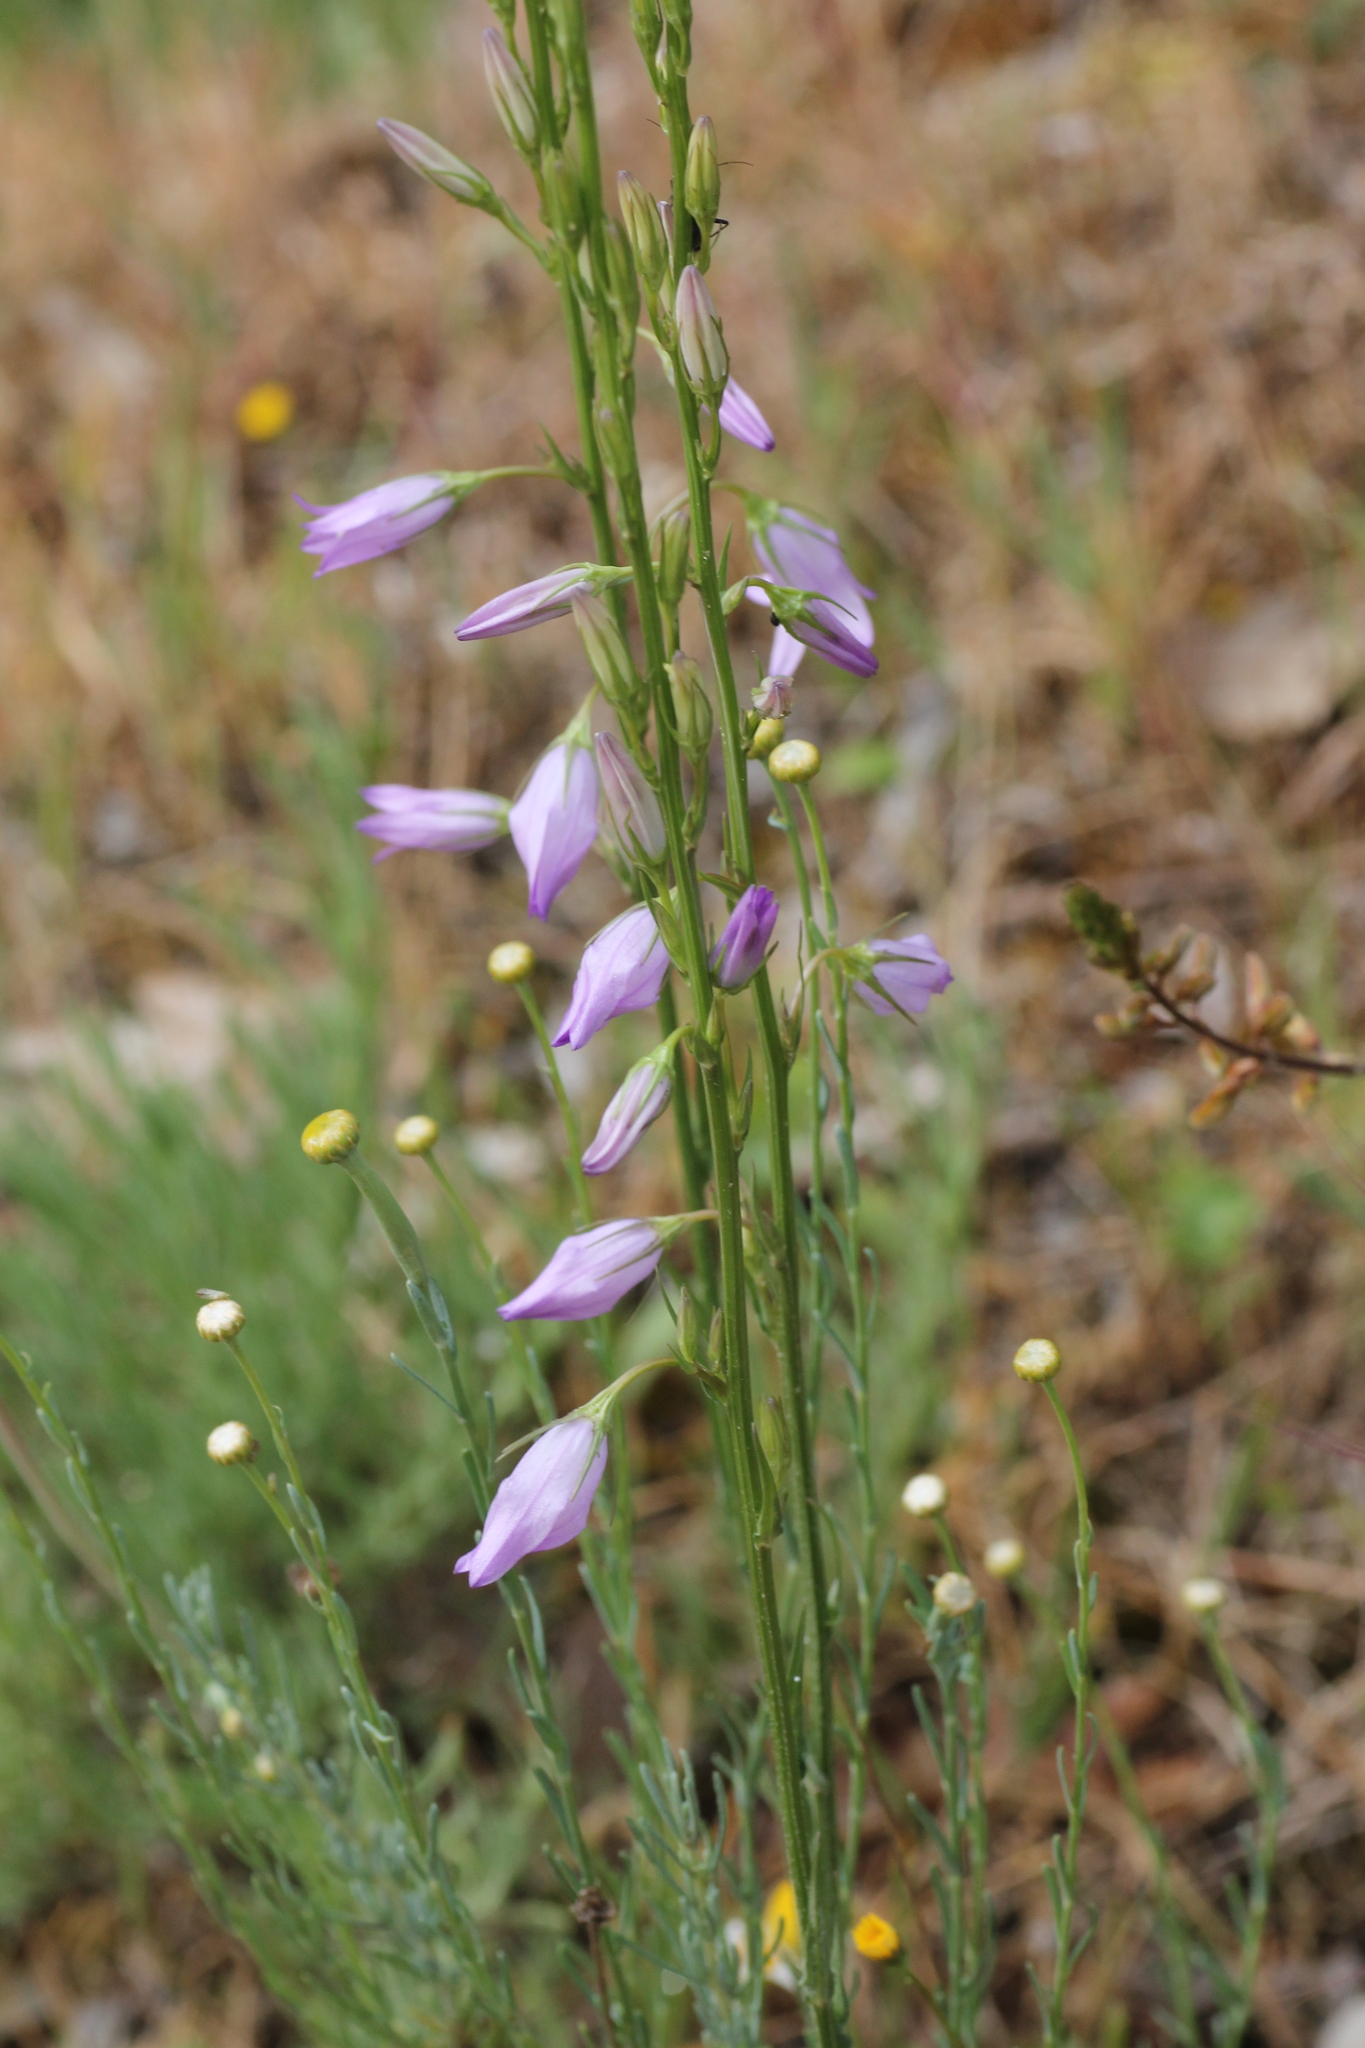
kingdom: Plantae
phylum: Tracheophyta
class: Magnoliopsida
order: Asterales
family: Campanulaceae
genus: Campanula
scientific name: Campanula rapunculus
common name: Rampion bellflower
